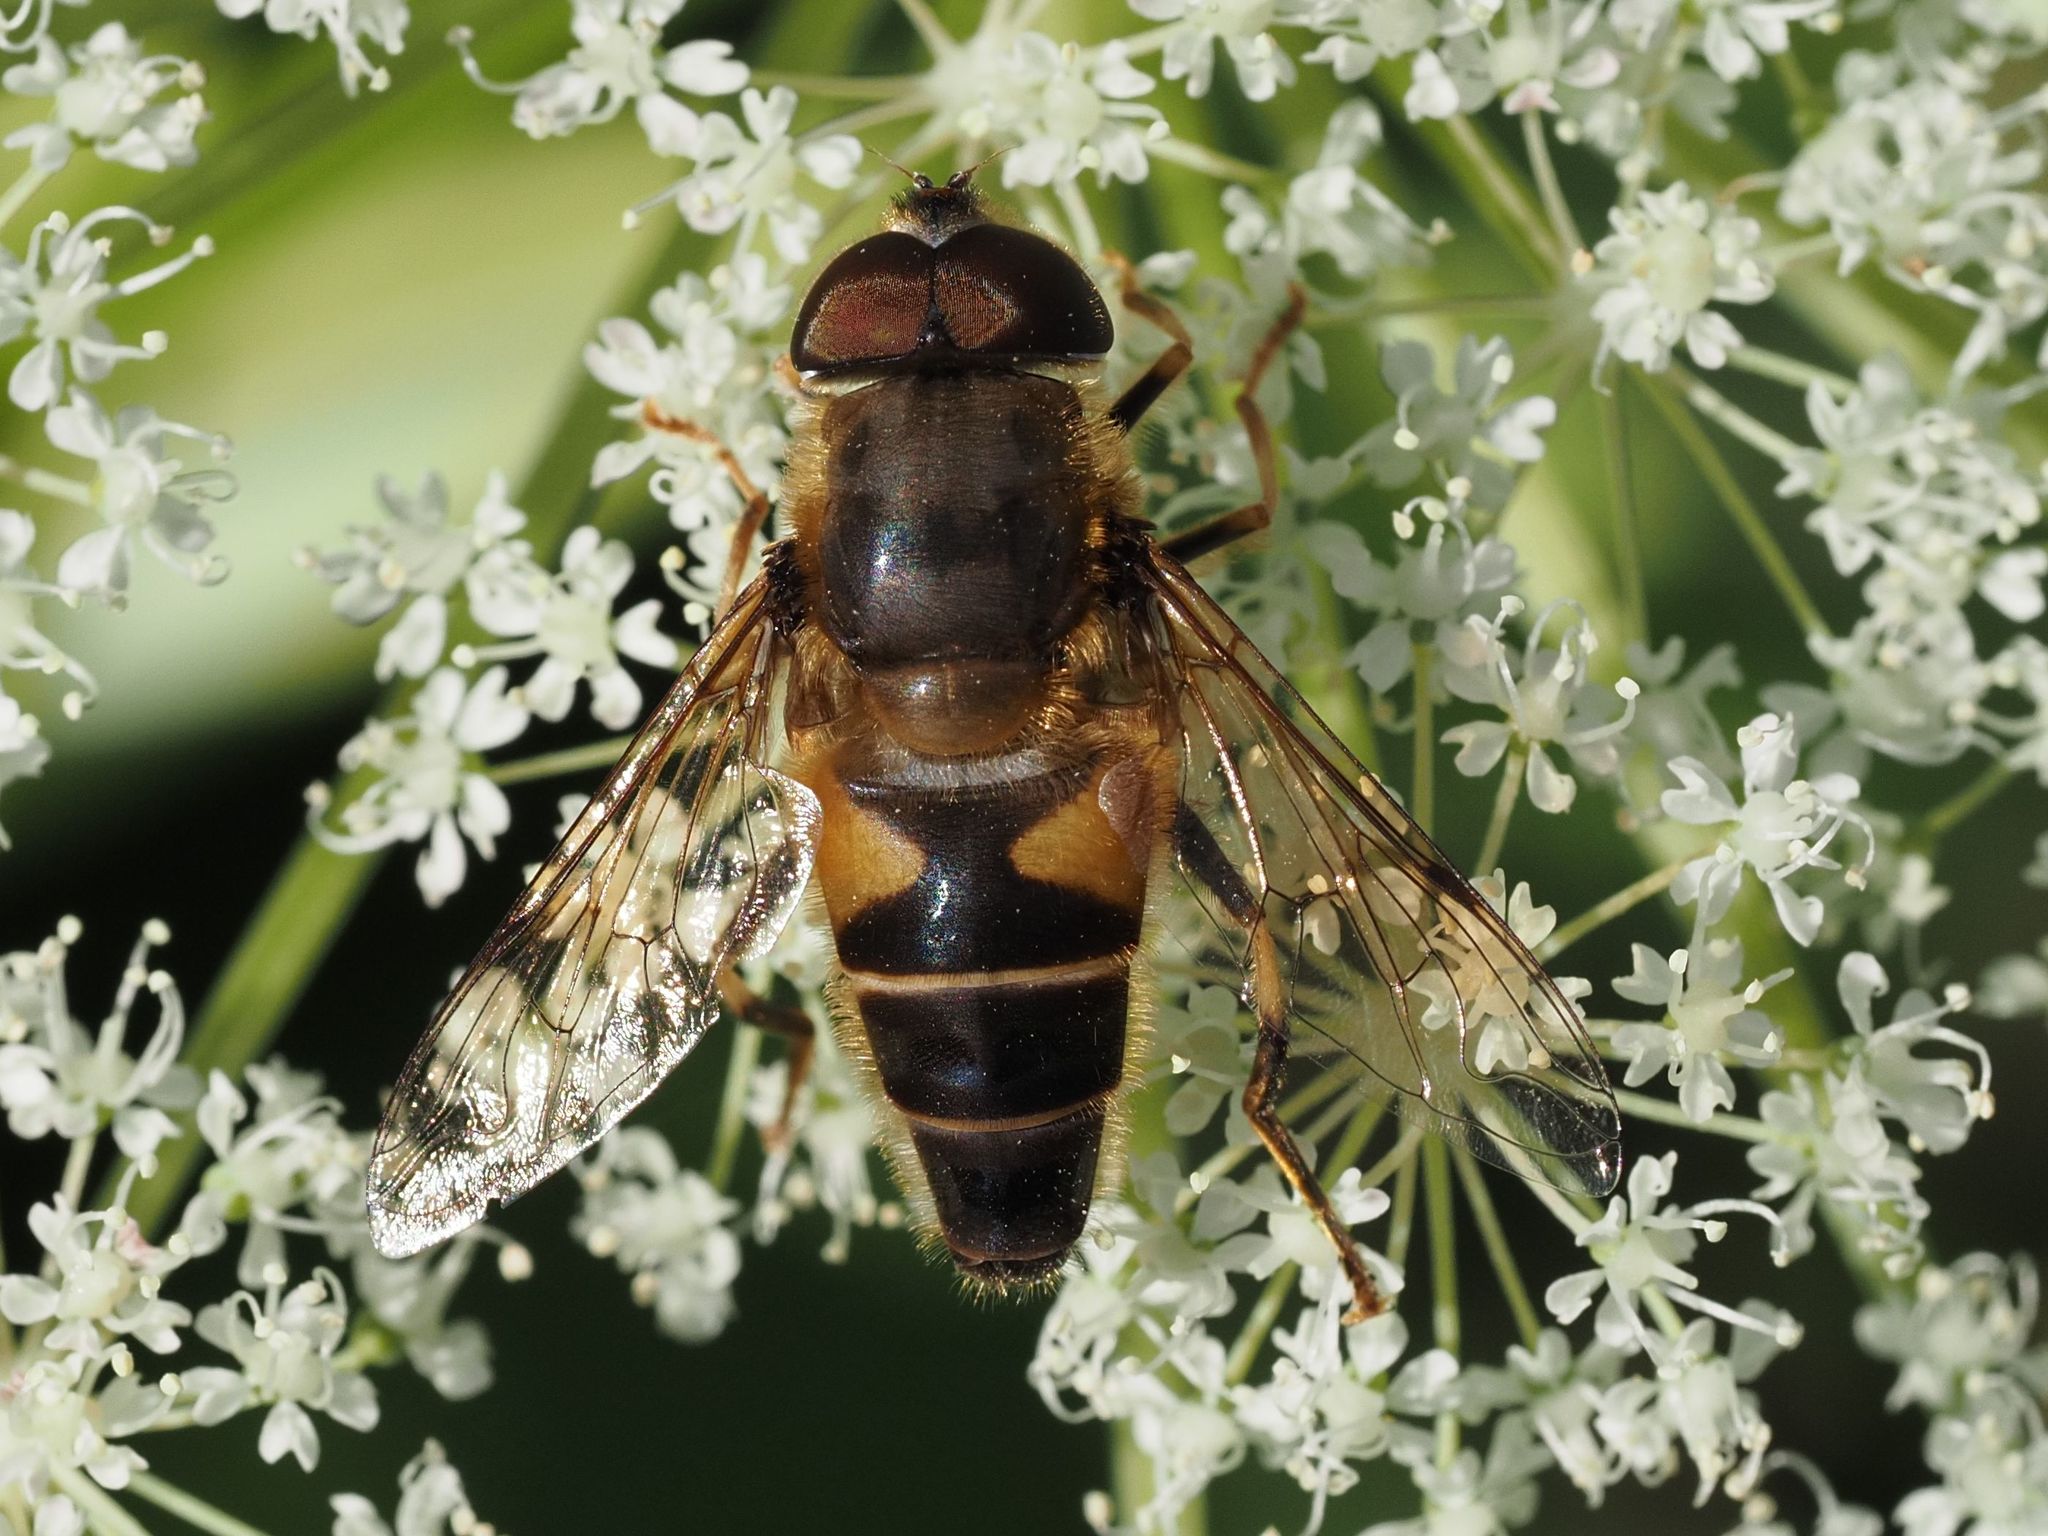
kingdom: Animalia
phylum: Arthropoda
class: Insecta
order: Diptera
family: Syrphidae
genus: Eristalis
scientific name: Eristalis pertinax
